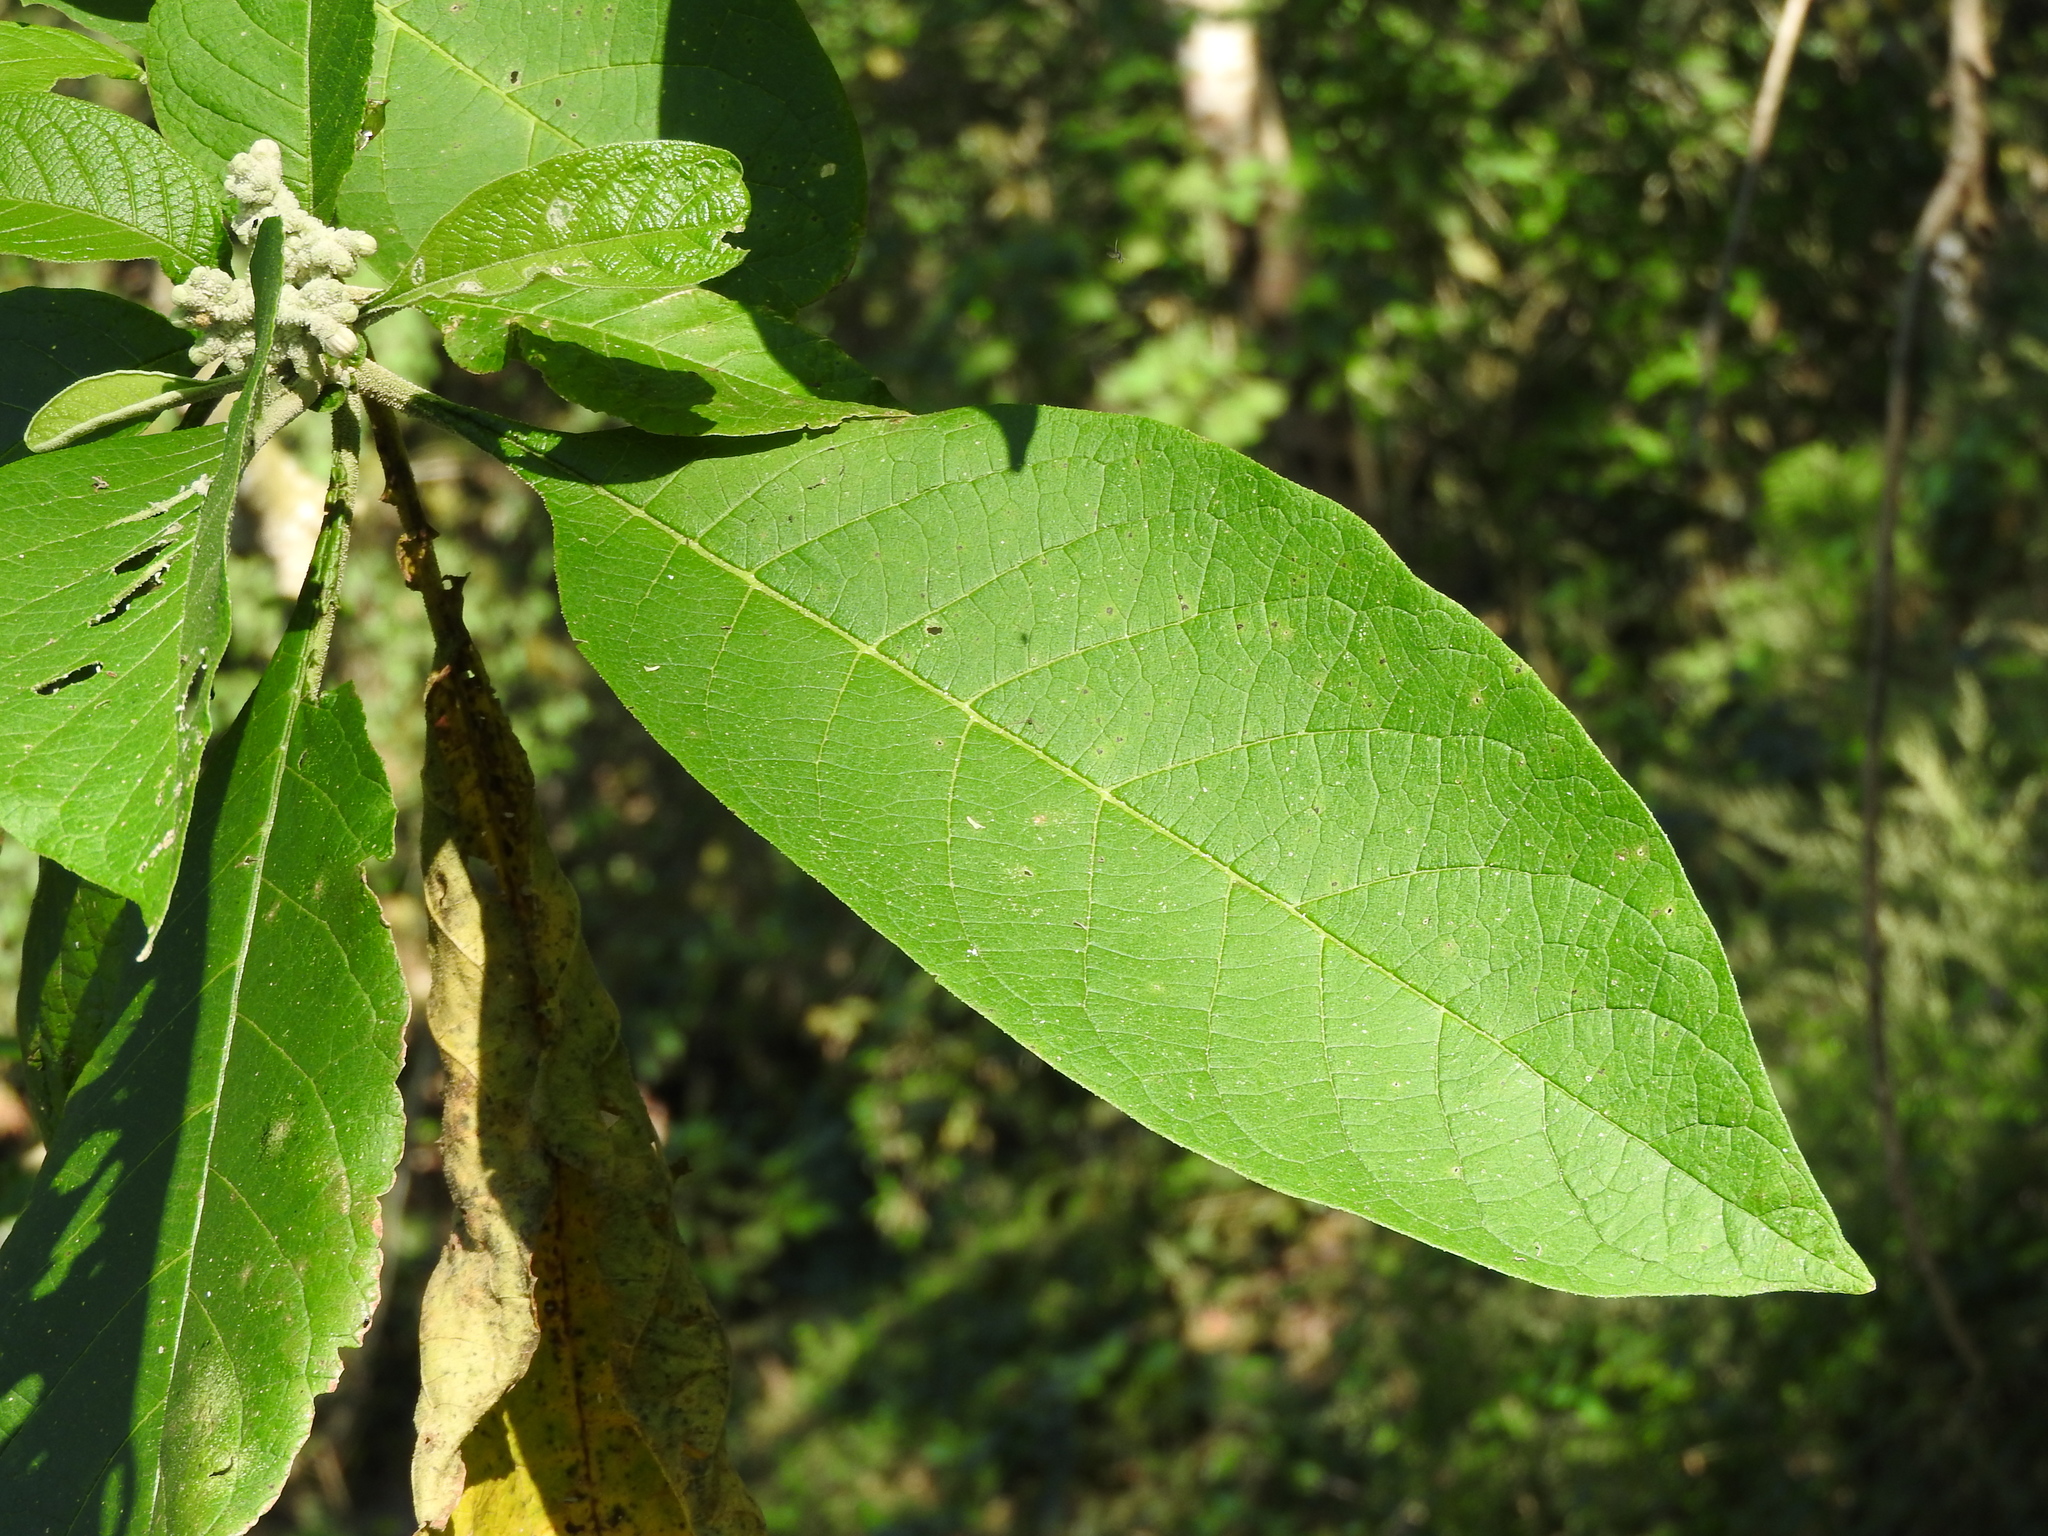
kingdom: Plantae
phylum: Tracheophyta
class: Magnoliopsida
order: Solanales
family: Solanaceae
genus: Solanum
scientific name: Solanum chiapasense
